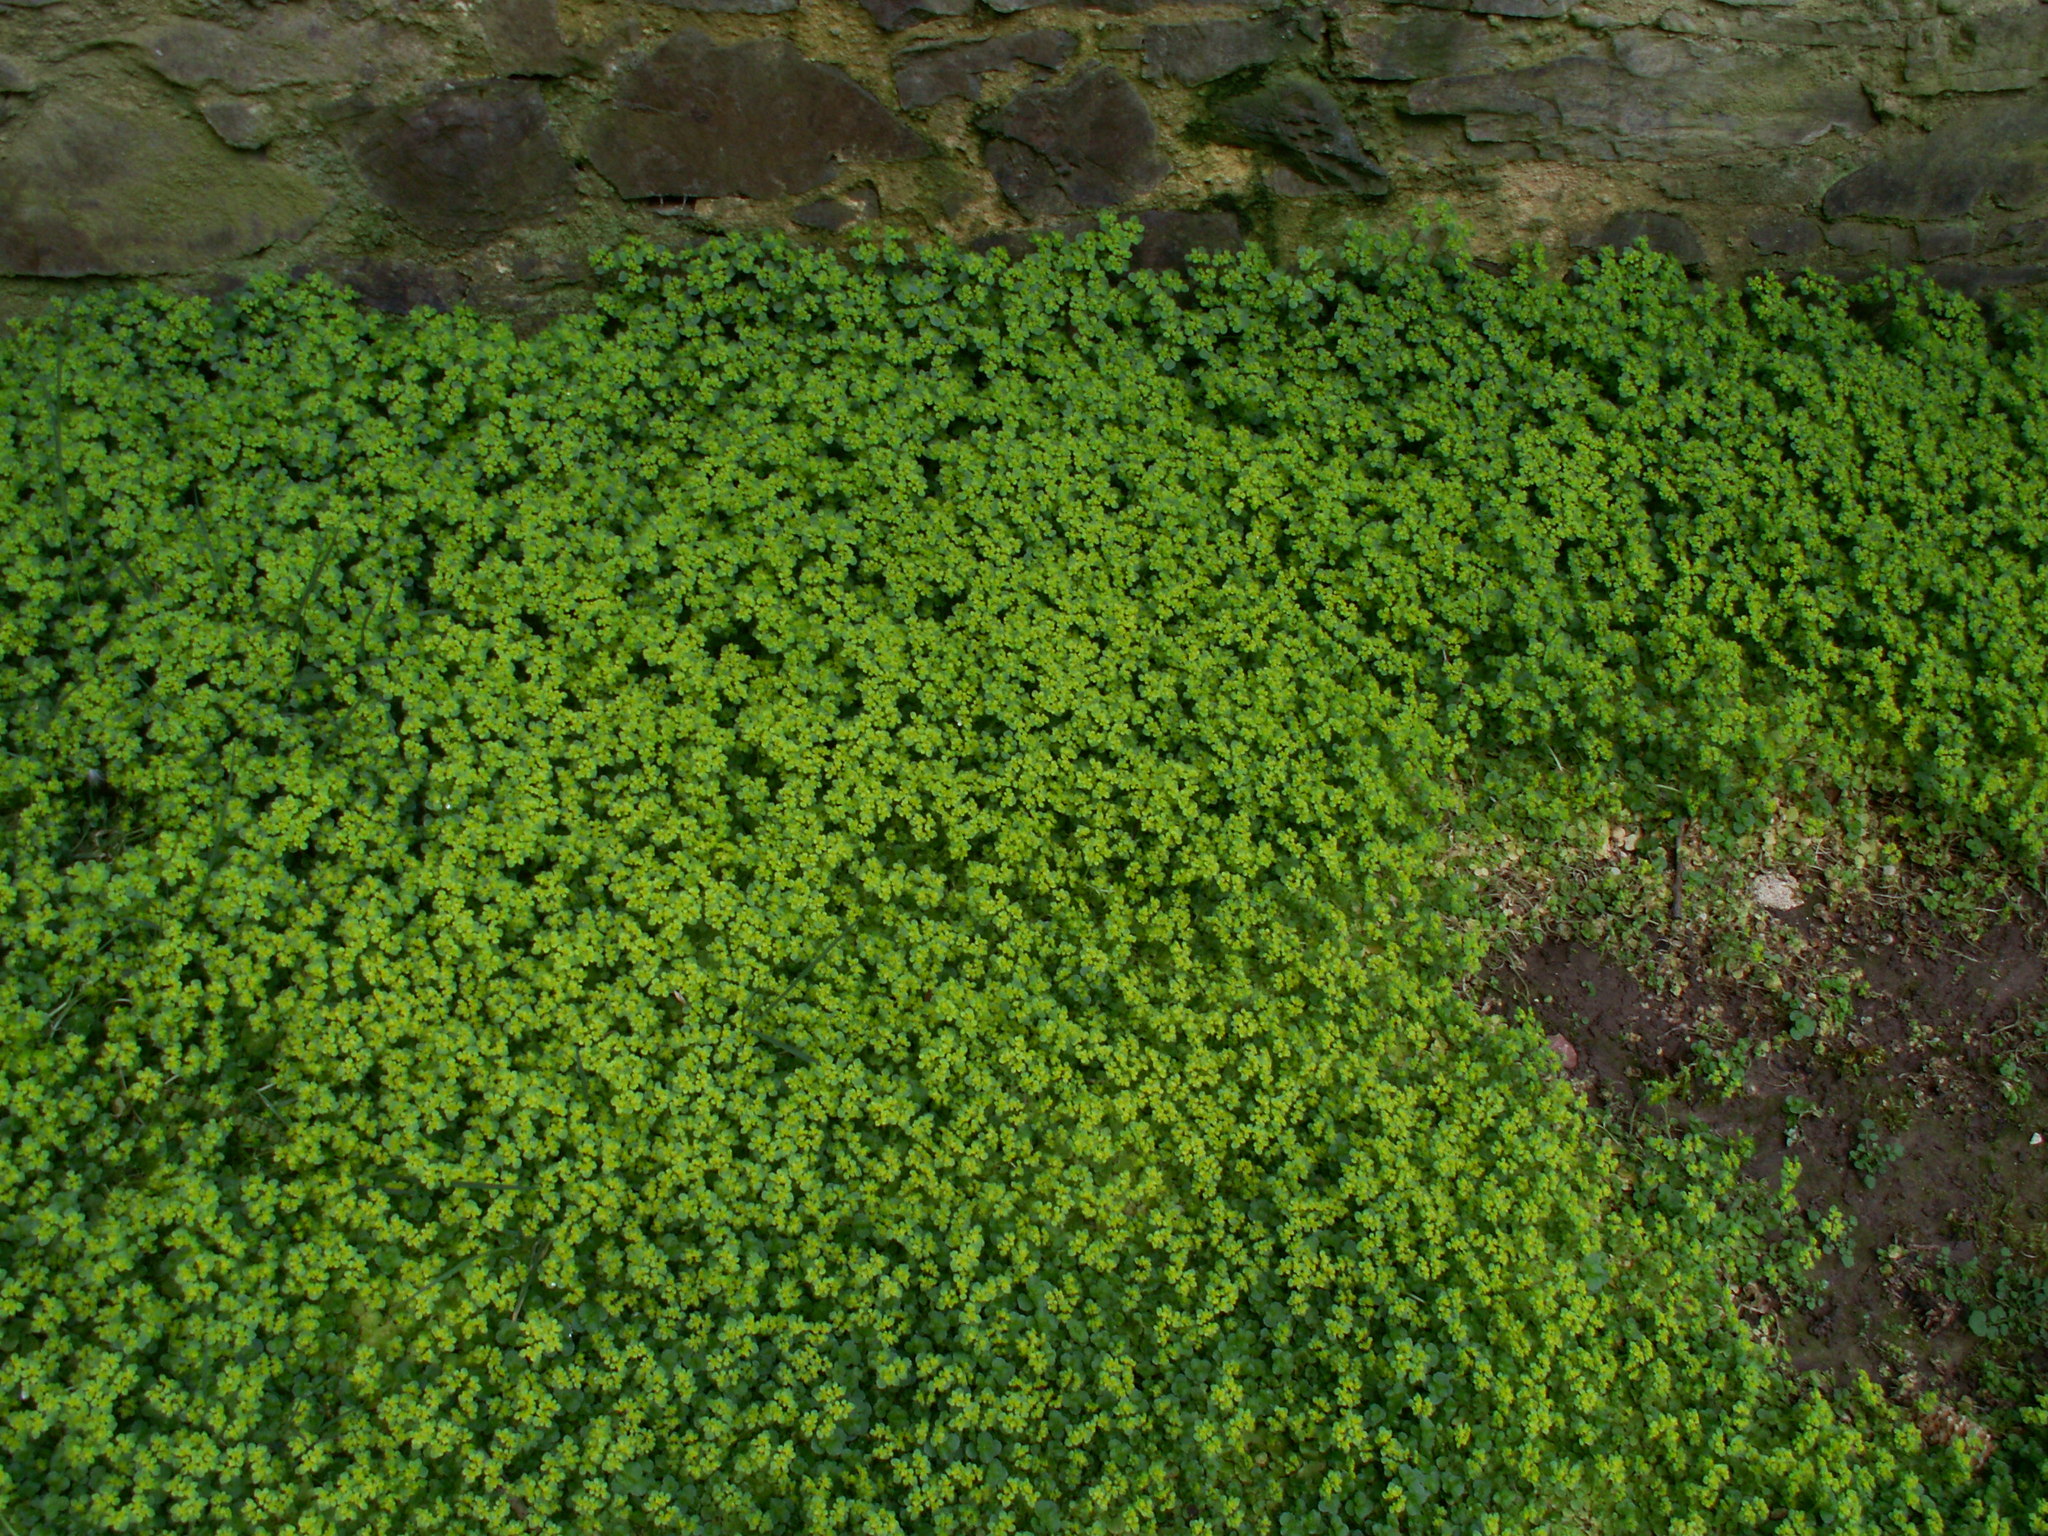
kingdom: Plantae
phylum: Tracheophyta
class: Magnoliopsida
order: Saxifragales
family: Saxifragaceae
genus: Chrysosplenium
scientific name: Chrysosplenium oppositifolium
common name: Opposite-leaved golden-saxifrage
